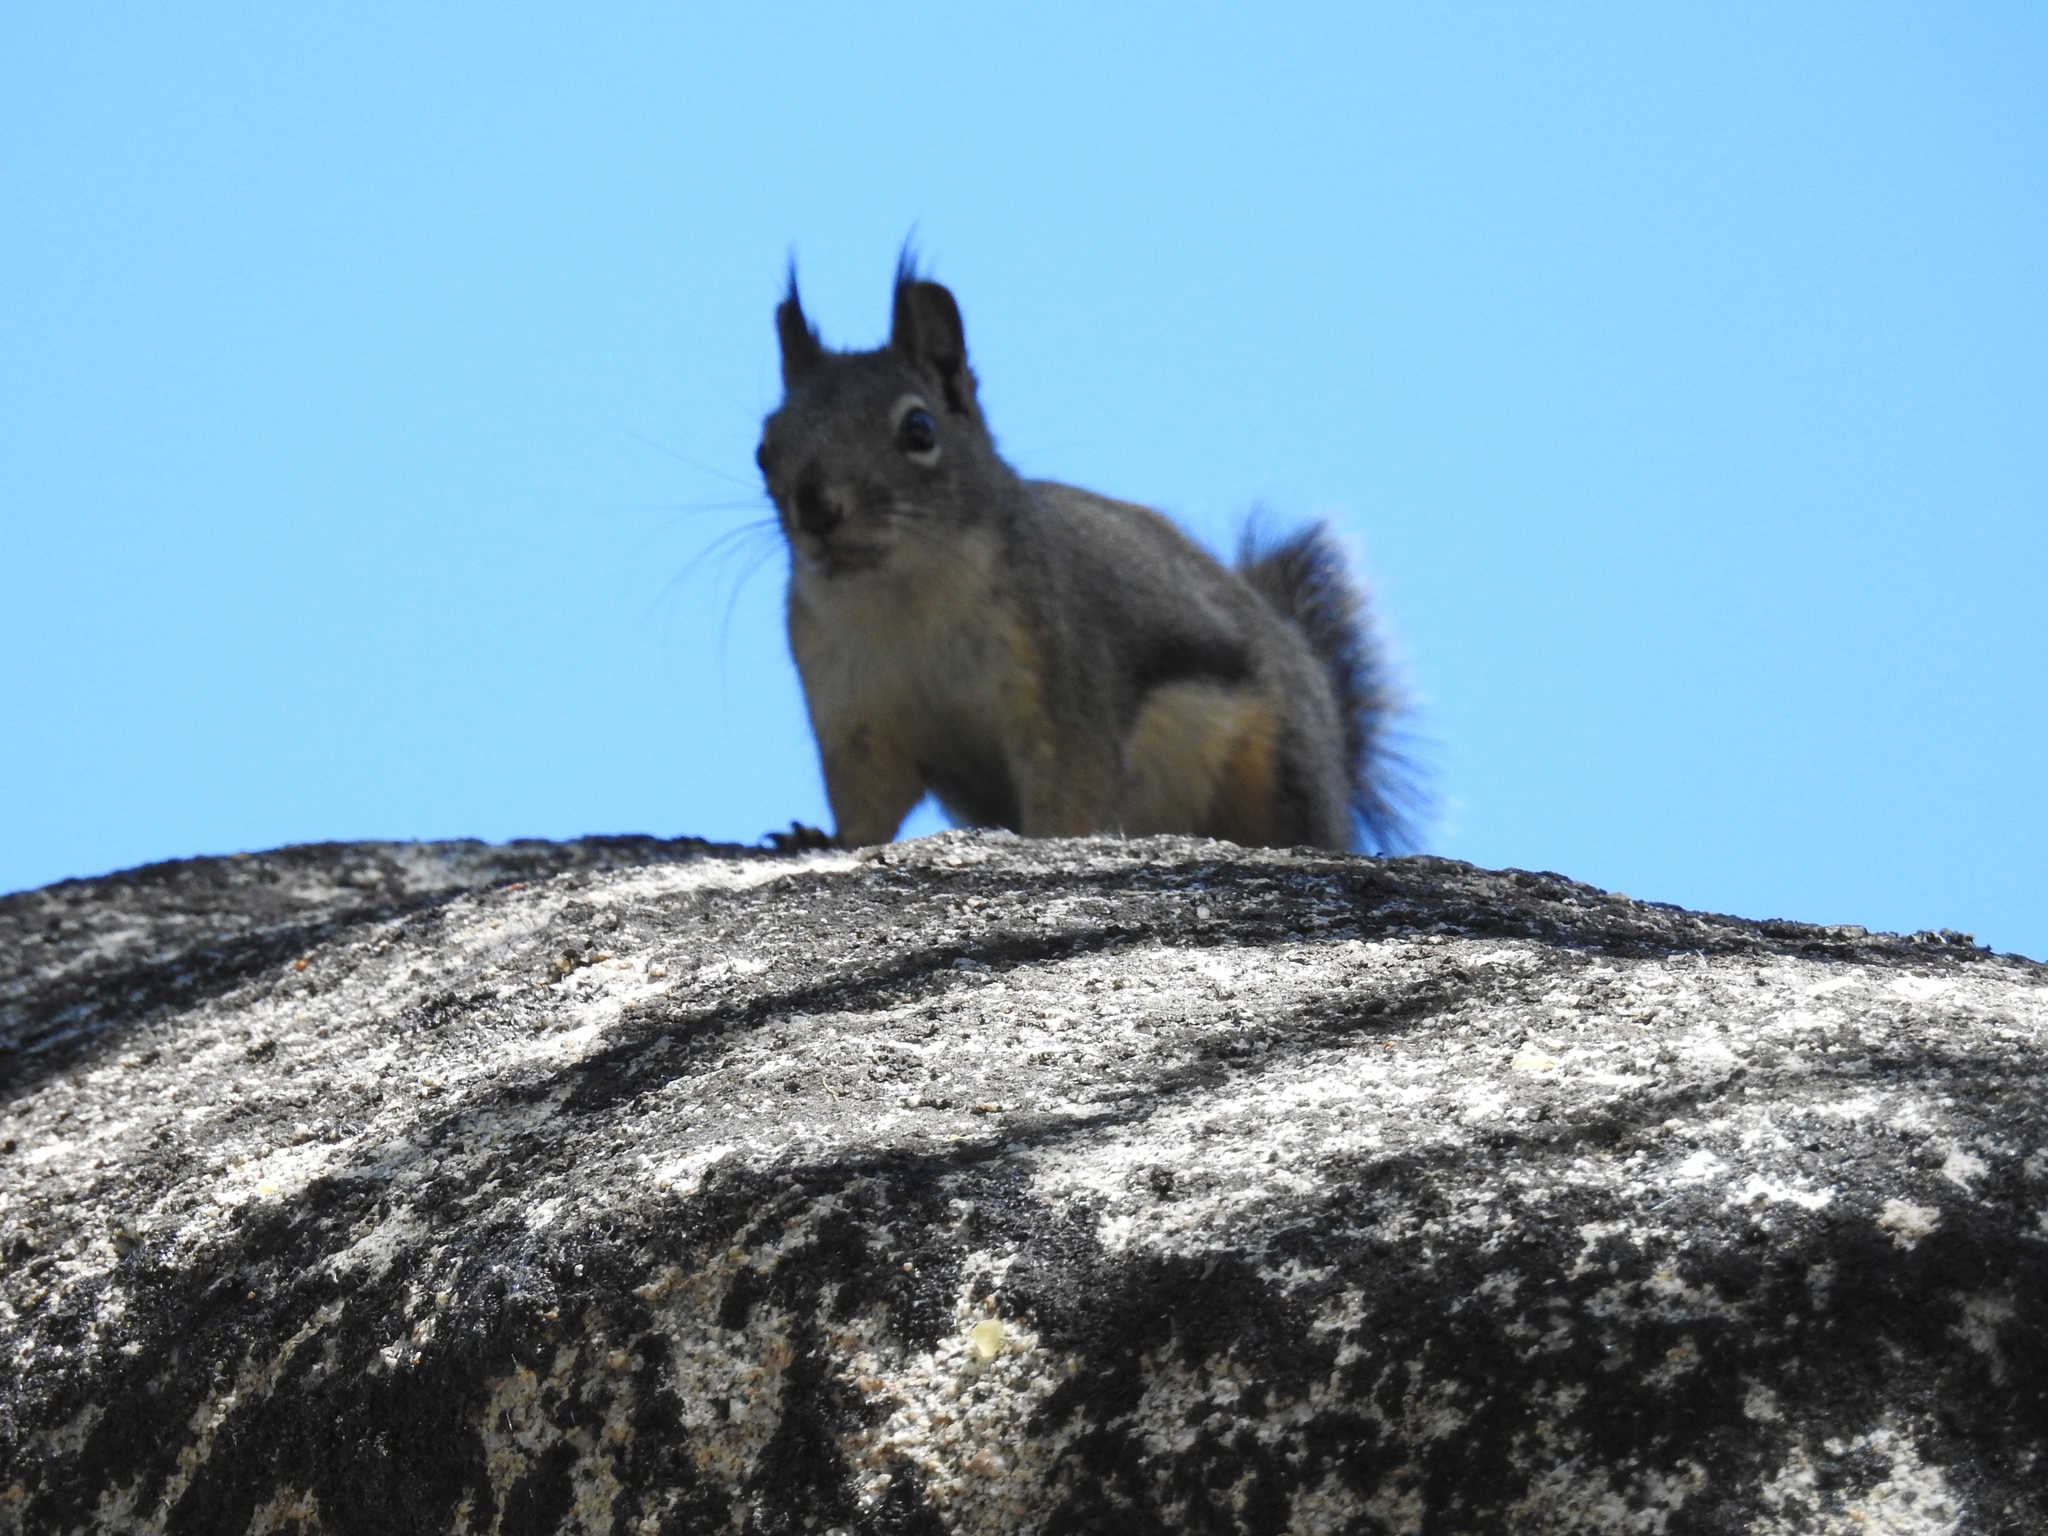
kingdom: Animalia
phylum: Chordata
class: Mammalia
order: Rodentia
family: Sciuridae
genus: Tamiasciurus
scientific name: Tamiasciurus douglasii
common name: Douglas's squirrel
